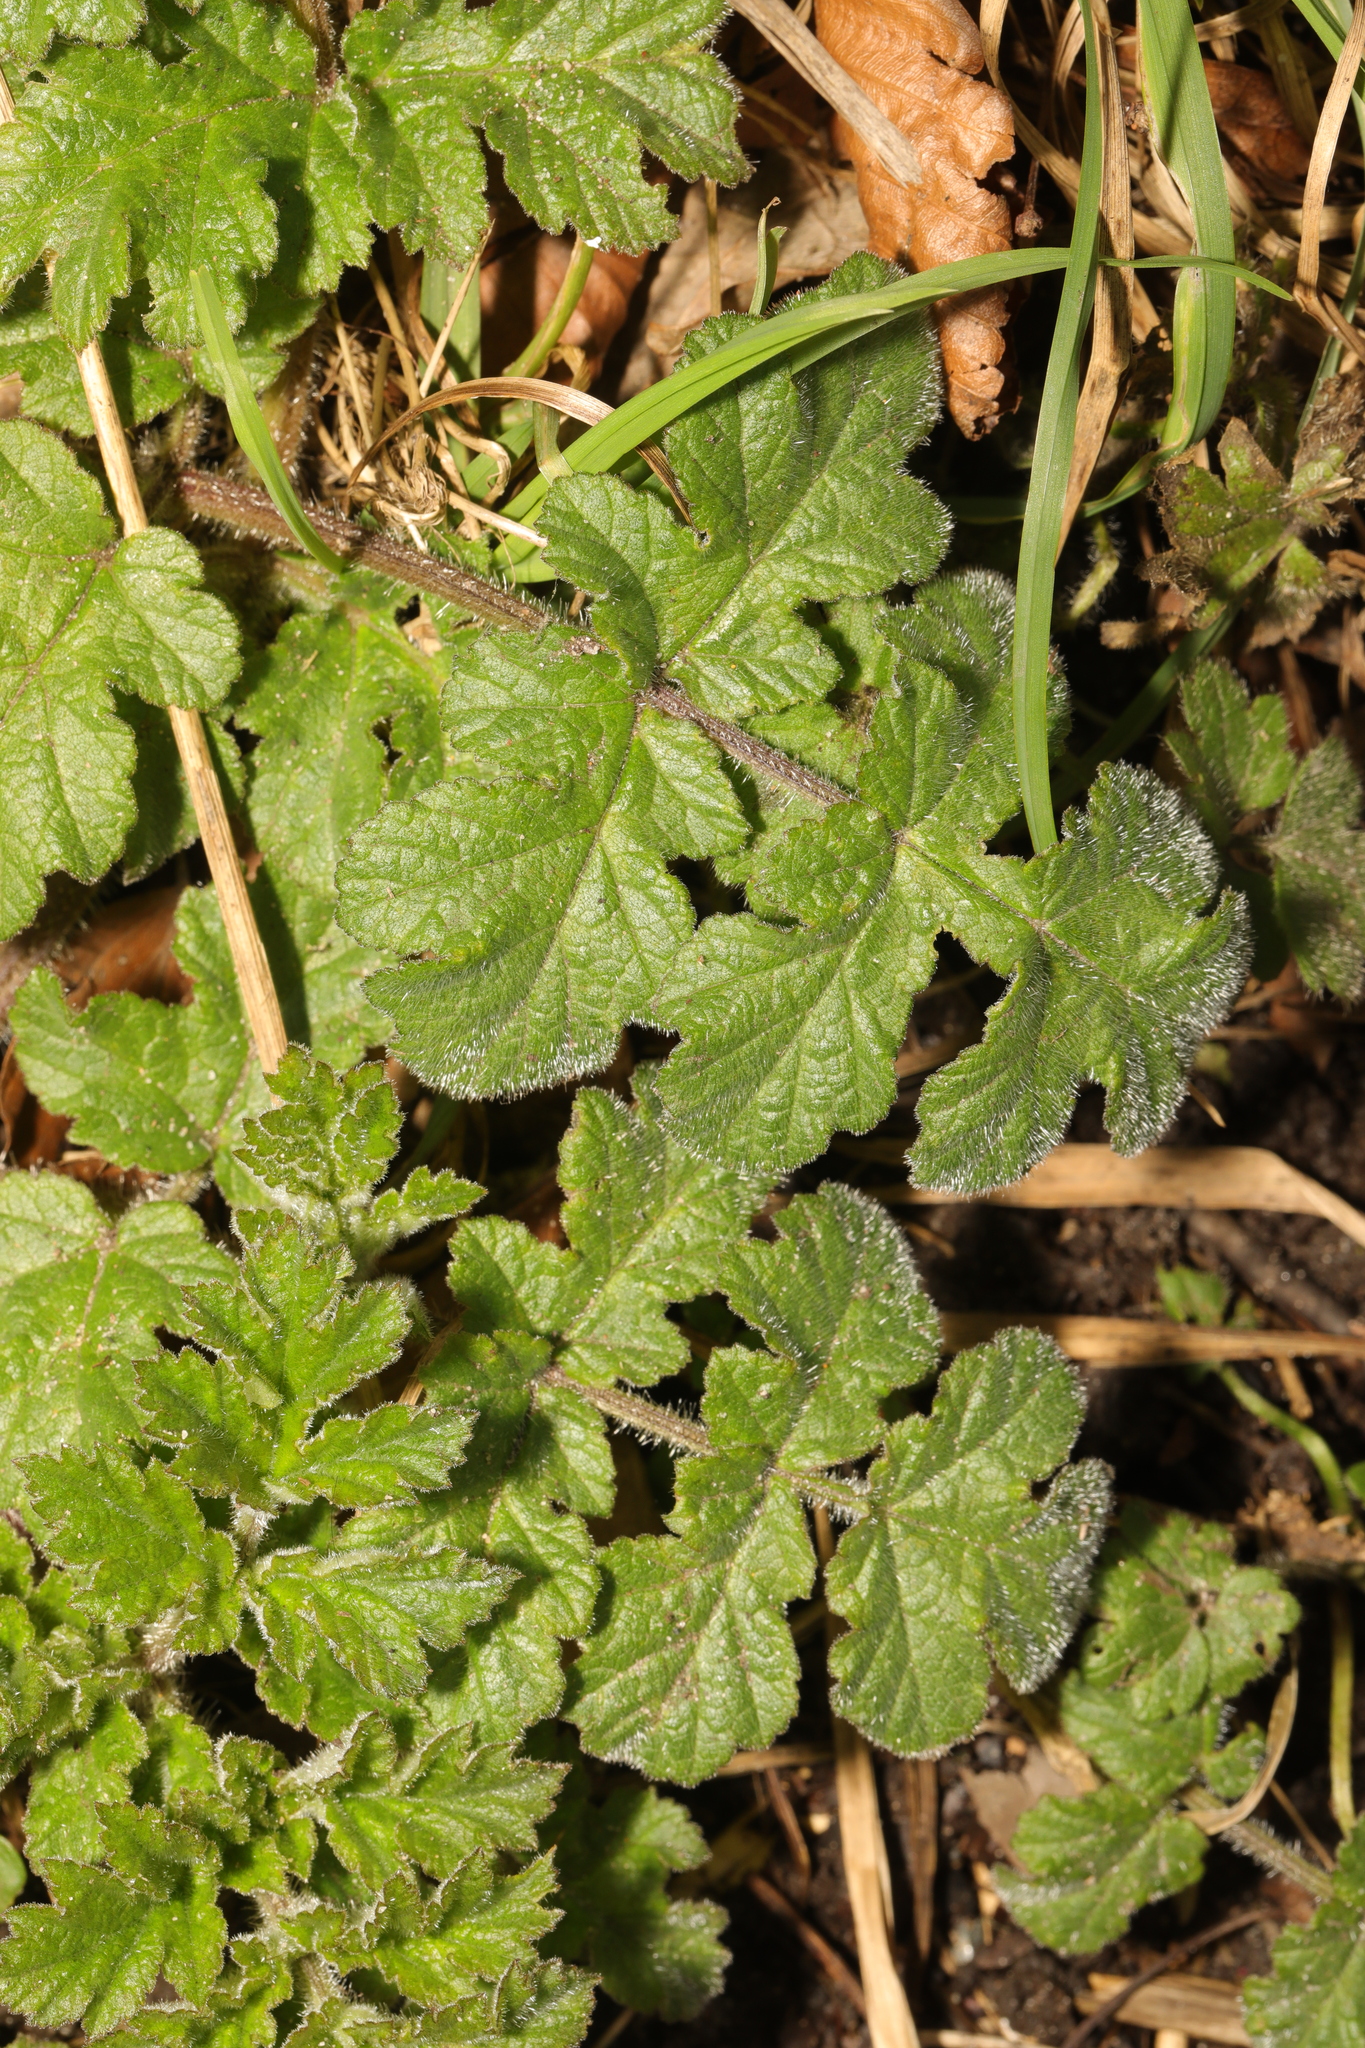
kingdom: Plantae
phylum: Tracheophyta
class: Magnoliopsida
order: Apiales
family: Apiaceae
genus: Heracleum
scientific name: Heracleum sphondylium
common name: Hogweed
